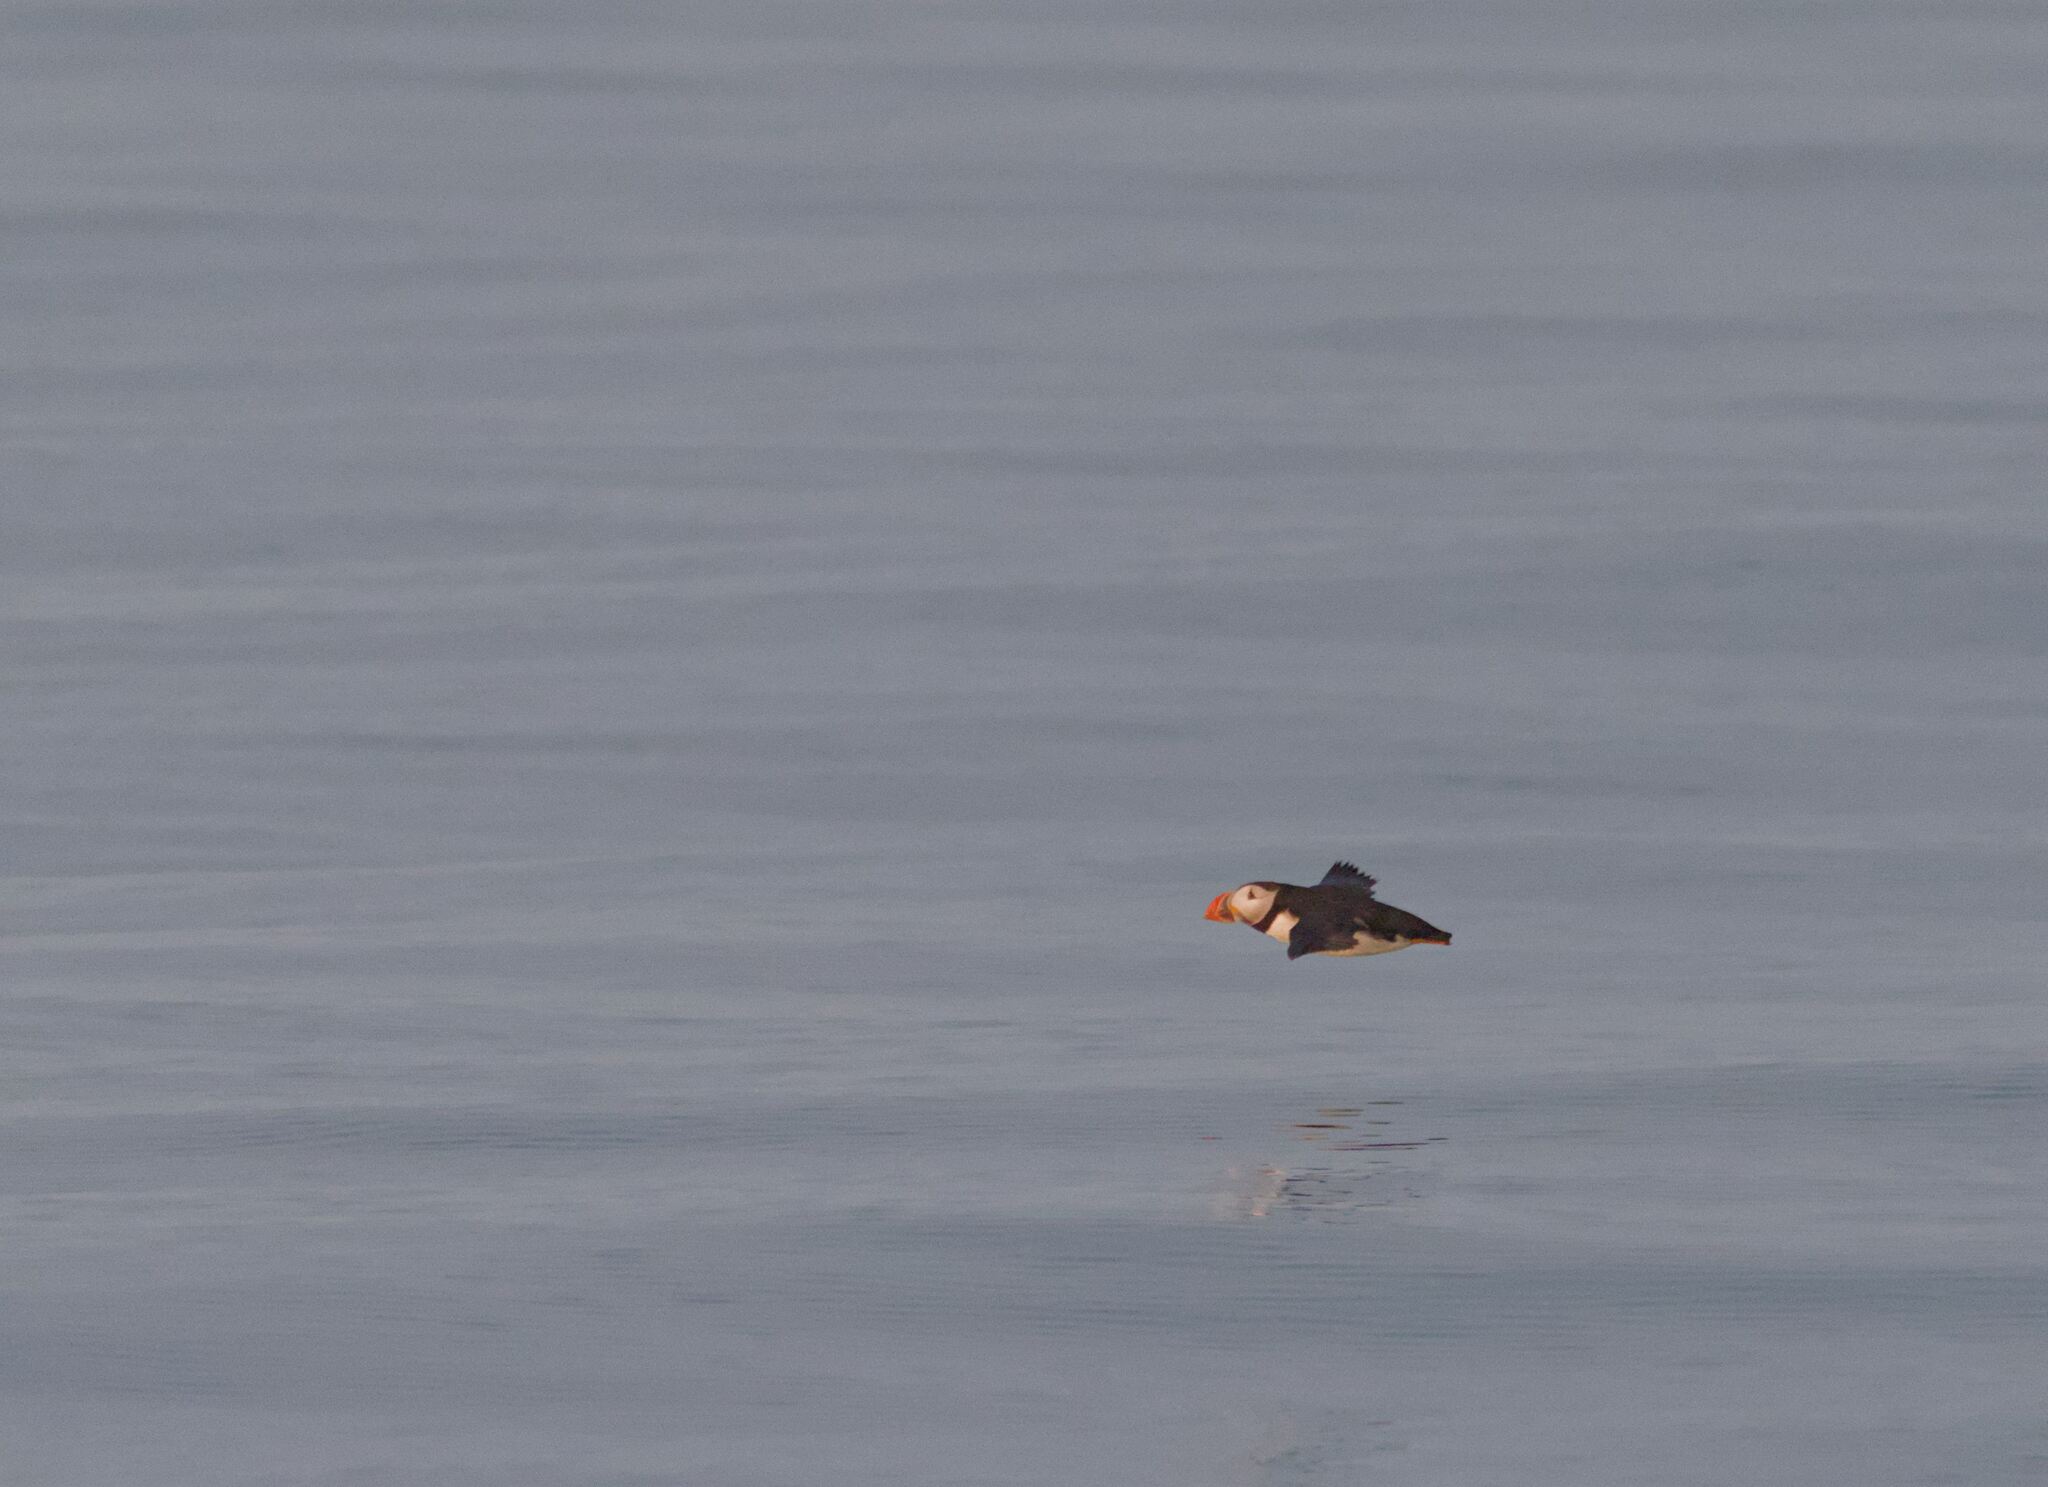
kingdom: Animalia
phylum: Chordata
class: Aves
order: Charadriiformes
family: Alcidae
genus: Fratercula
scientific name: Fratercula arctica
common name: Atlantic puffin
